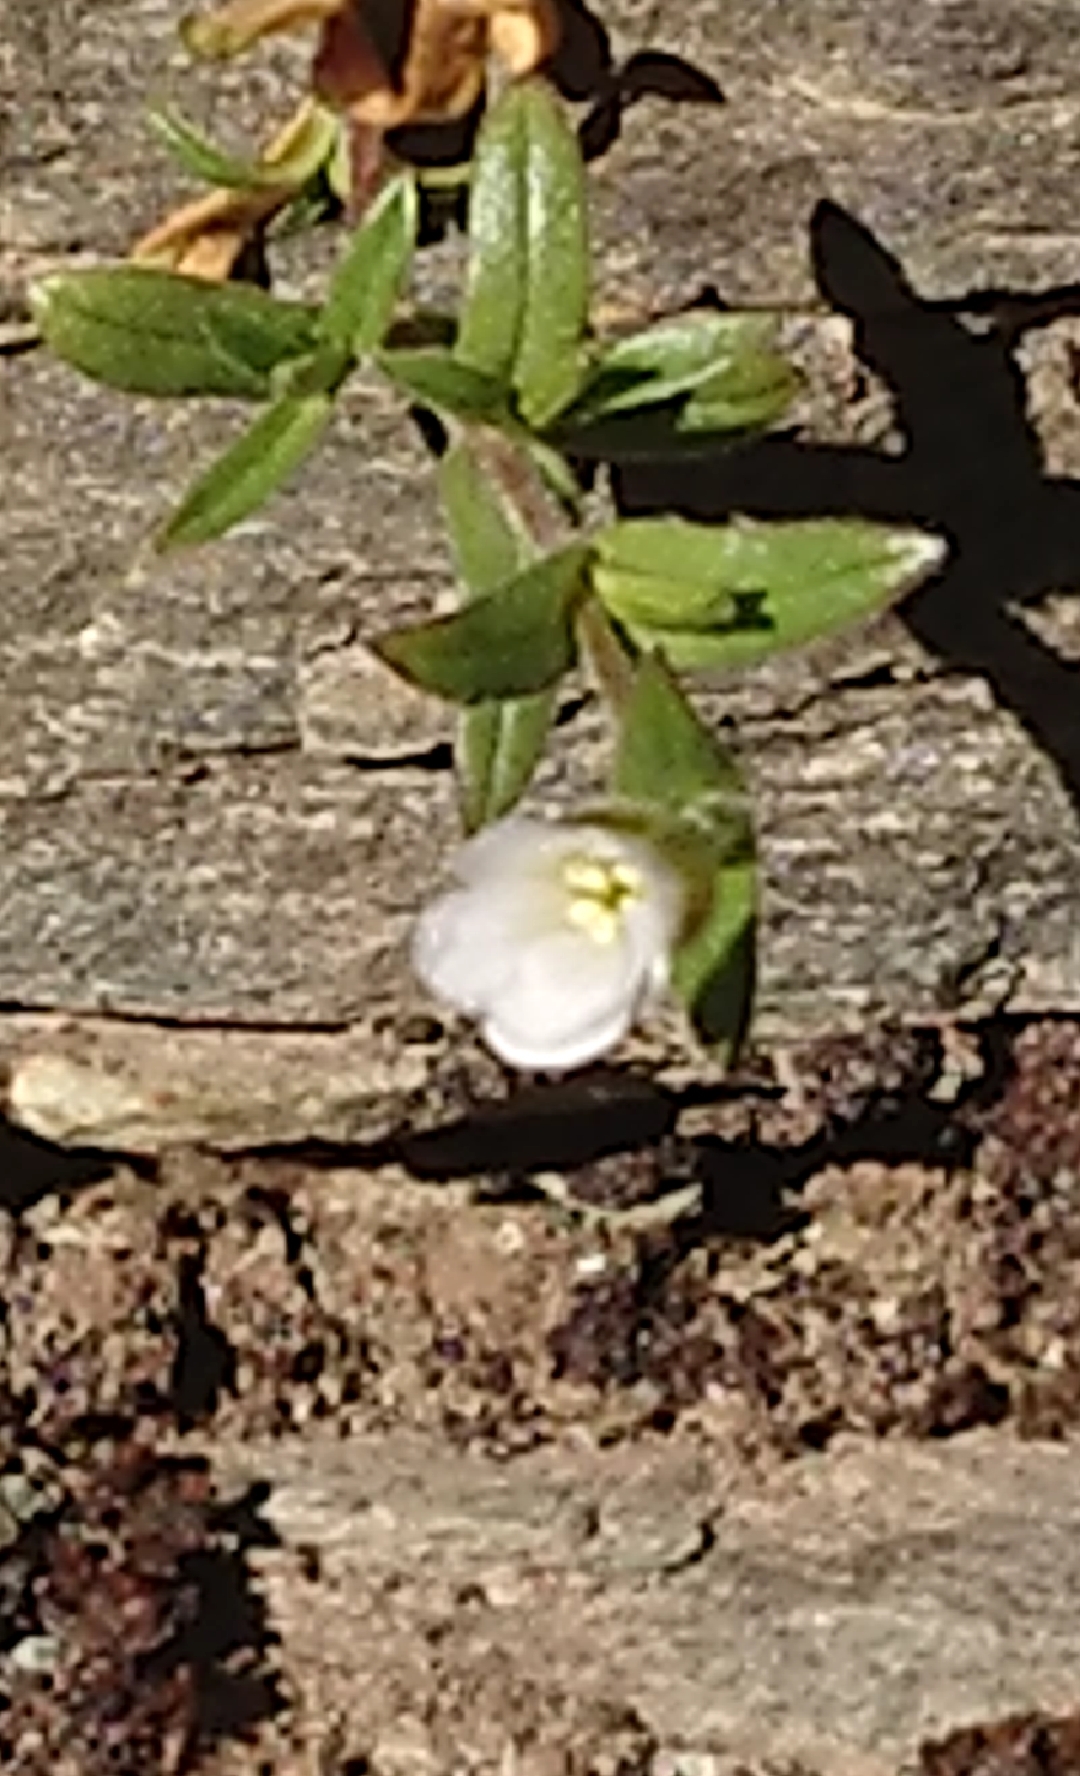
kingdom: Plantae
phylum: Tracheophyta
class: Magnoliopsida
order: Caryophyllales
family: Caryophyllaceae
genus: Cerastium
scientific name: Cerastium arvense
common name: Field mouse-ear
